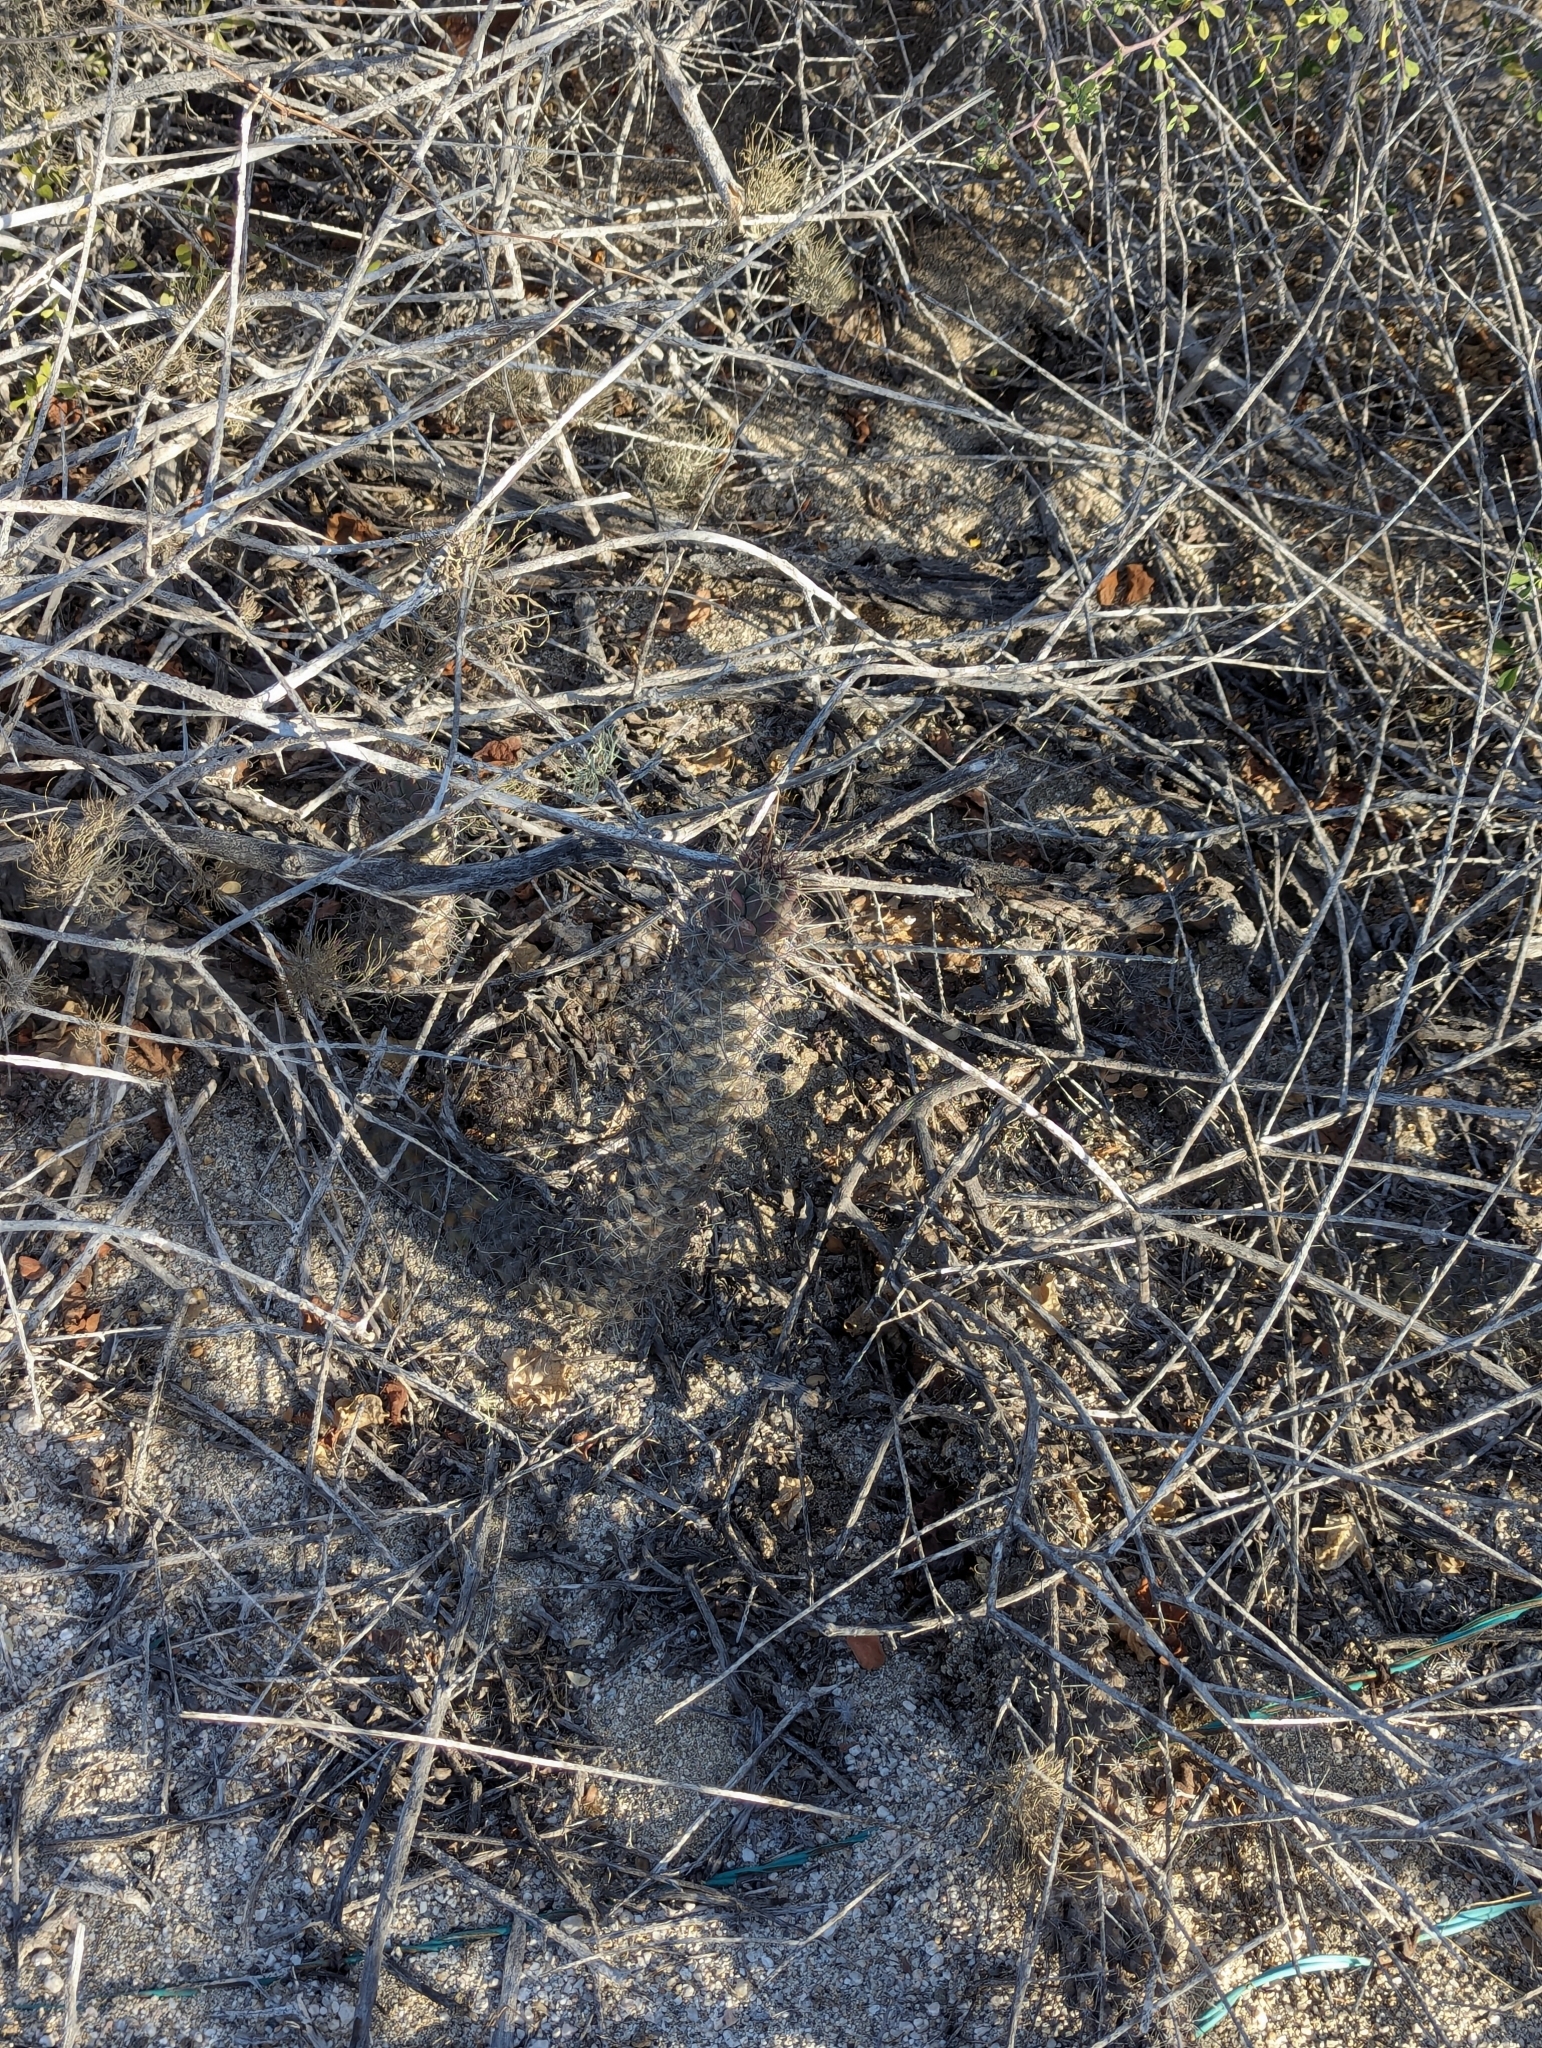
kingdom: Plantae
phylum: Tracheophyta
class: Magnoliopsida
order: Caryophyllales
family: Cactaceae
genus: Cochemiea
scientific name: Cochemiea poselgeri
